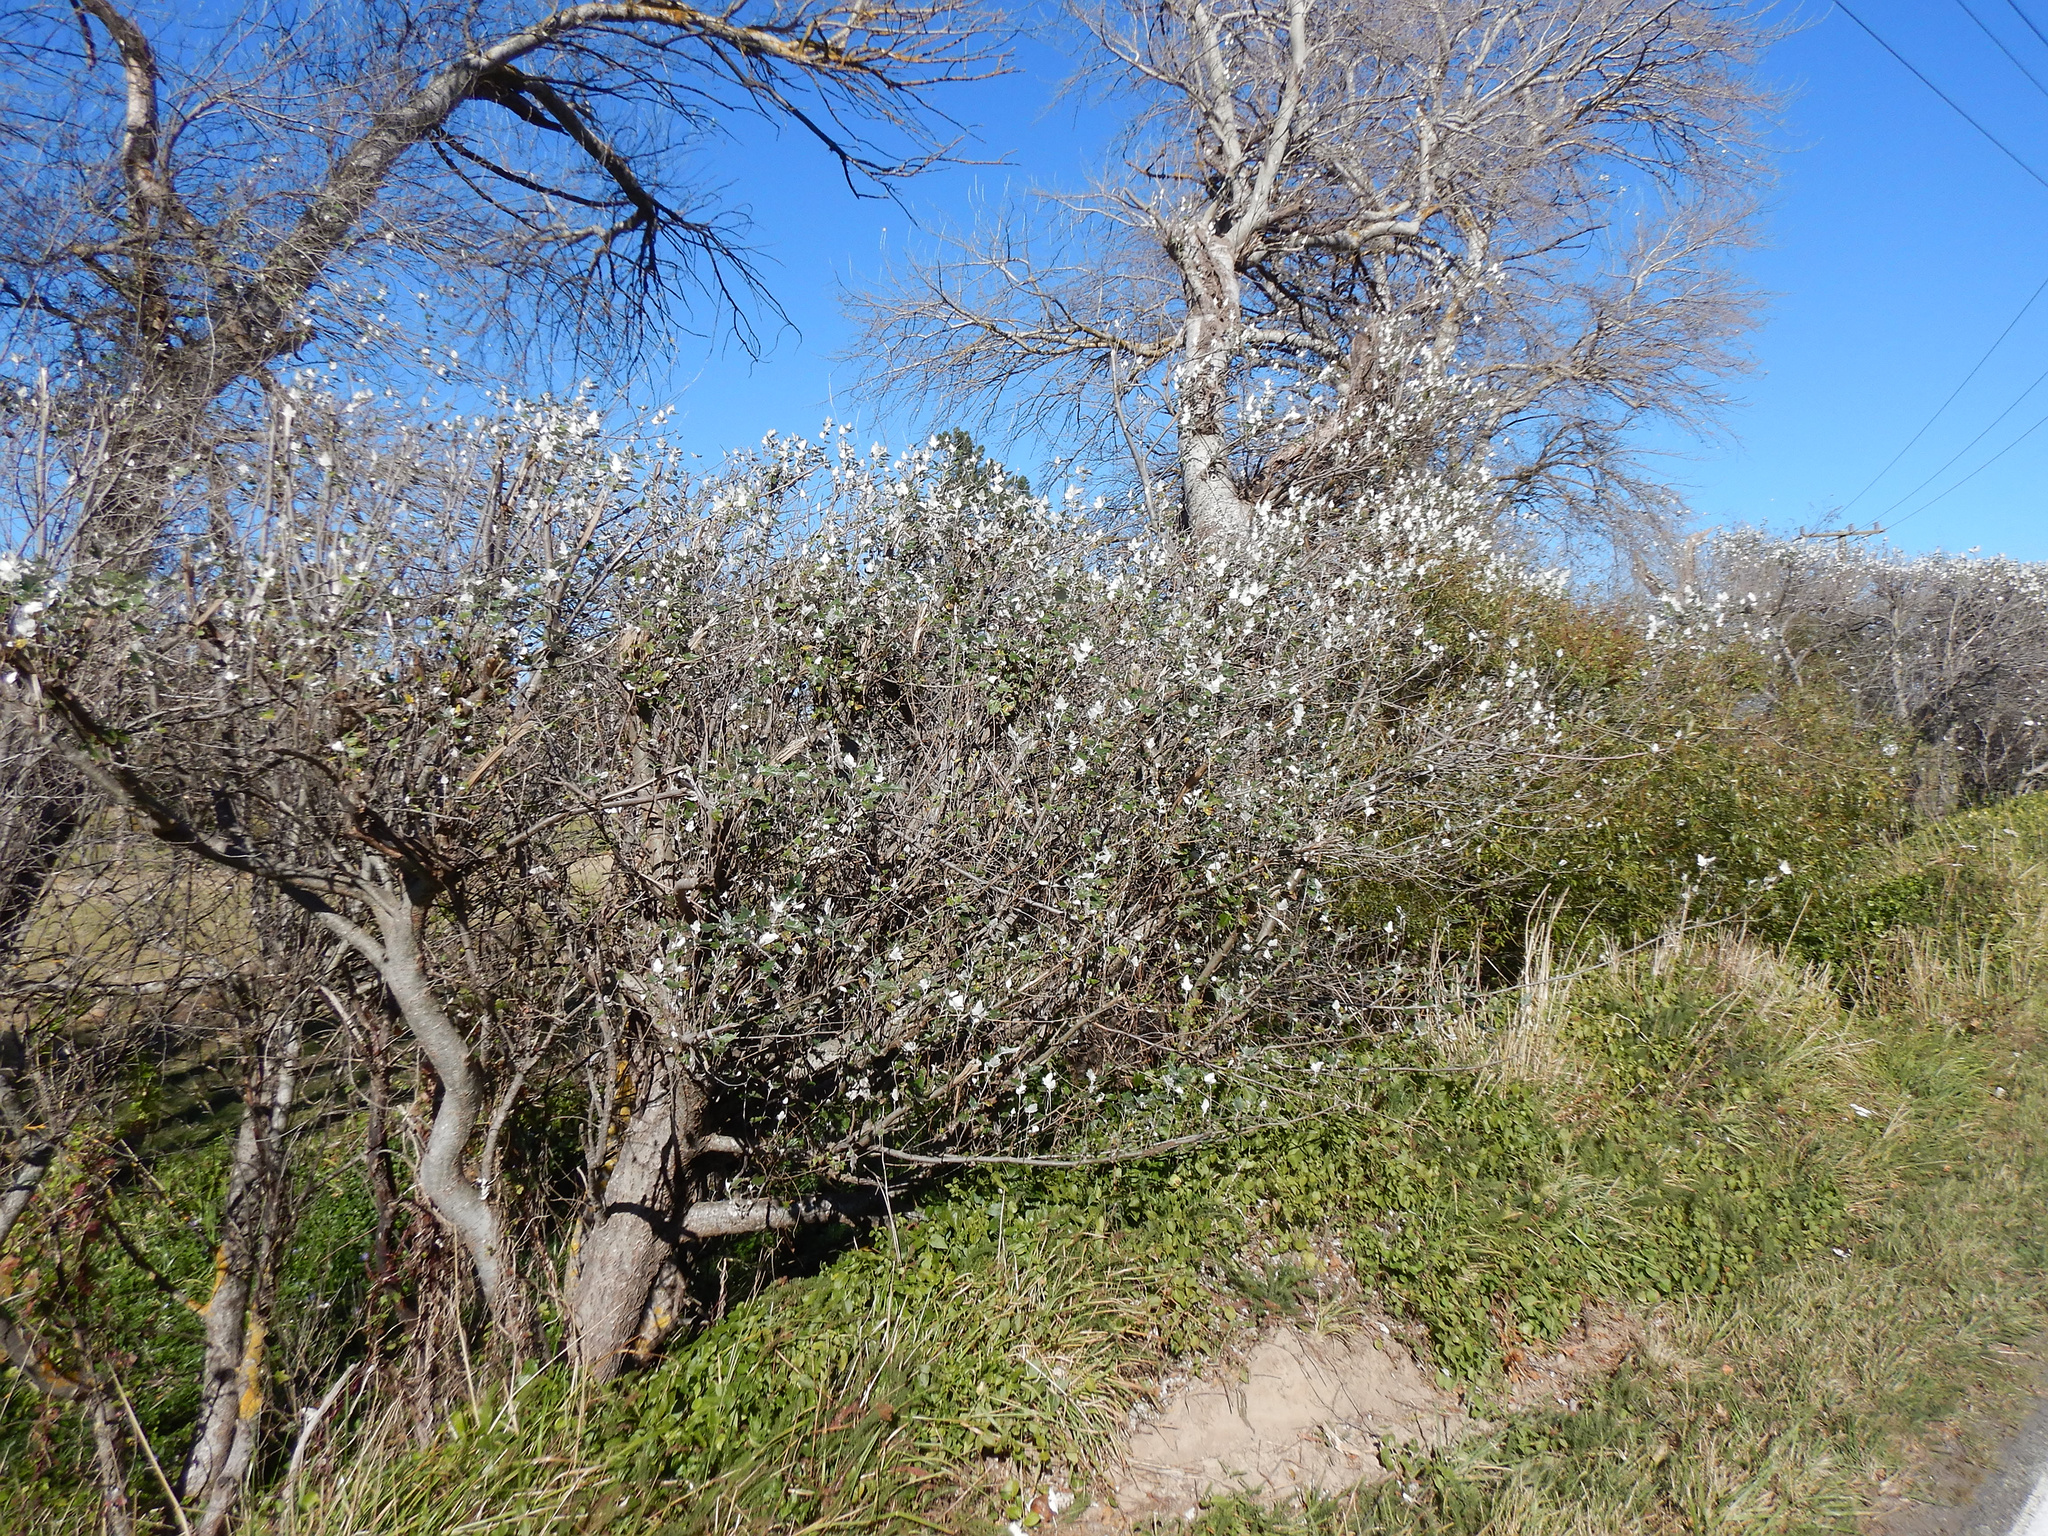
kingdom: Plantae
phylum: Tracheophyta
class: Magnoliopsida
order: Malpighiales
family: Salicaceae
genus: Populus
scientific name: Populus alba
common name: White poplar
